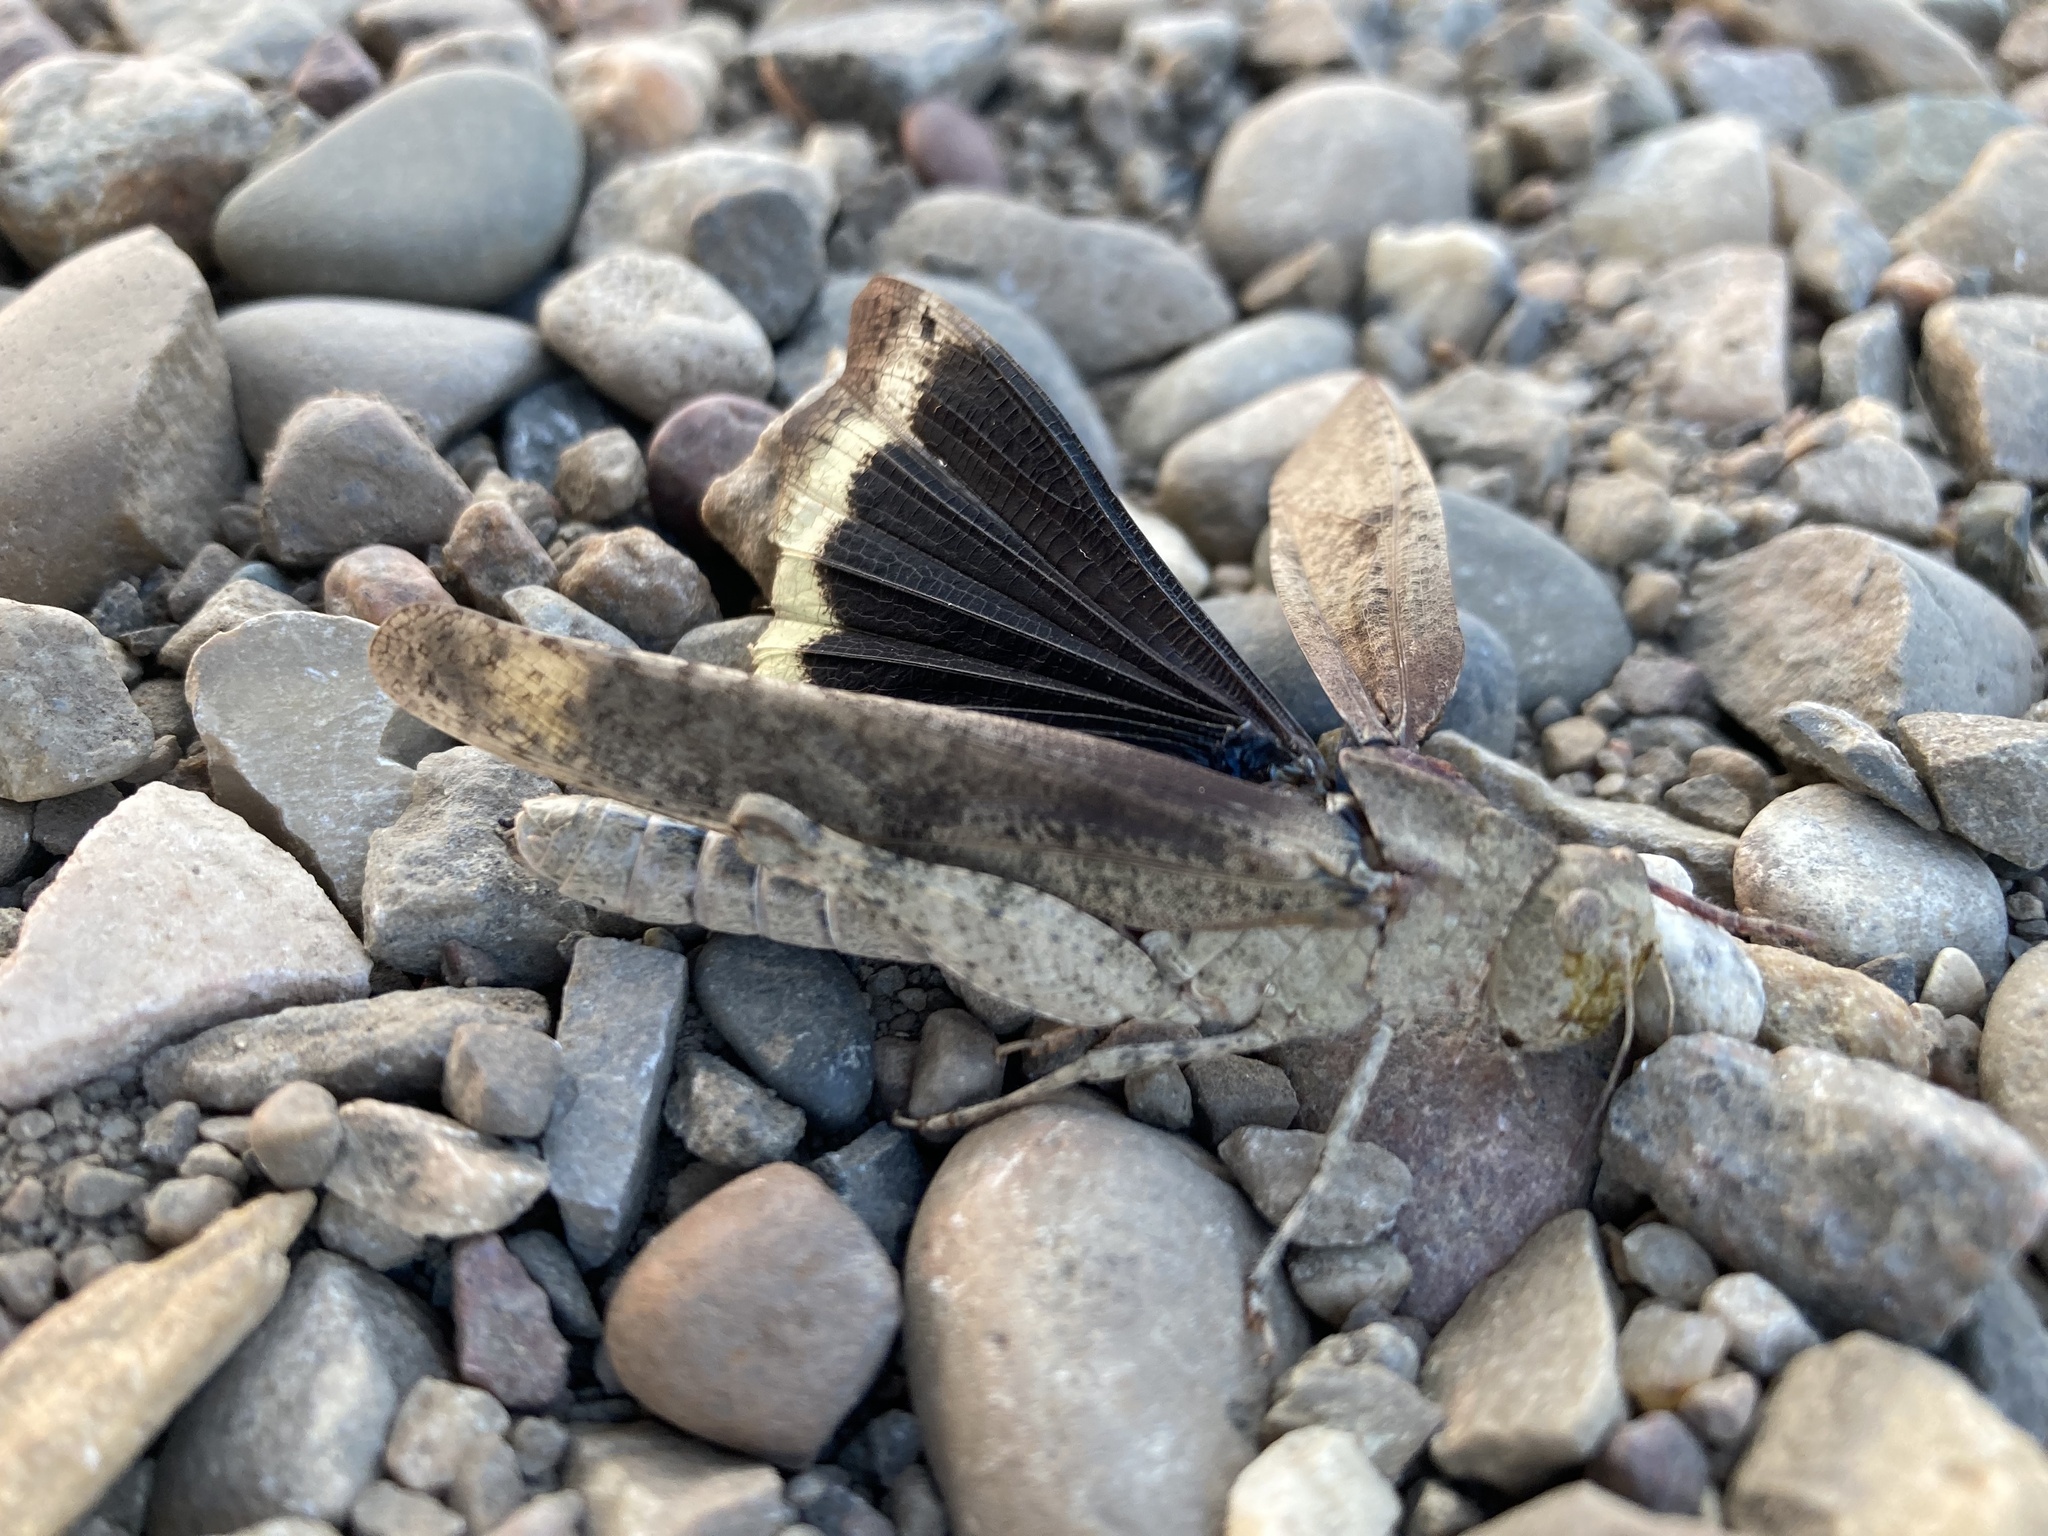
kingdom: Animalia
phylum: Arthropoda
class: Insecta
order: Orthoptera
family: Acrididae
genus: Dissosteira
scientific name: Dissosteira carolina
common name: Carolina grasshopper
